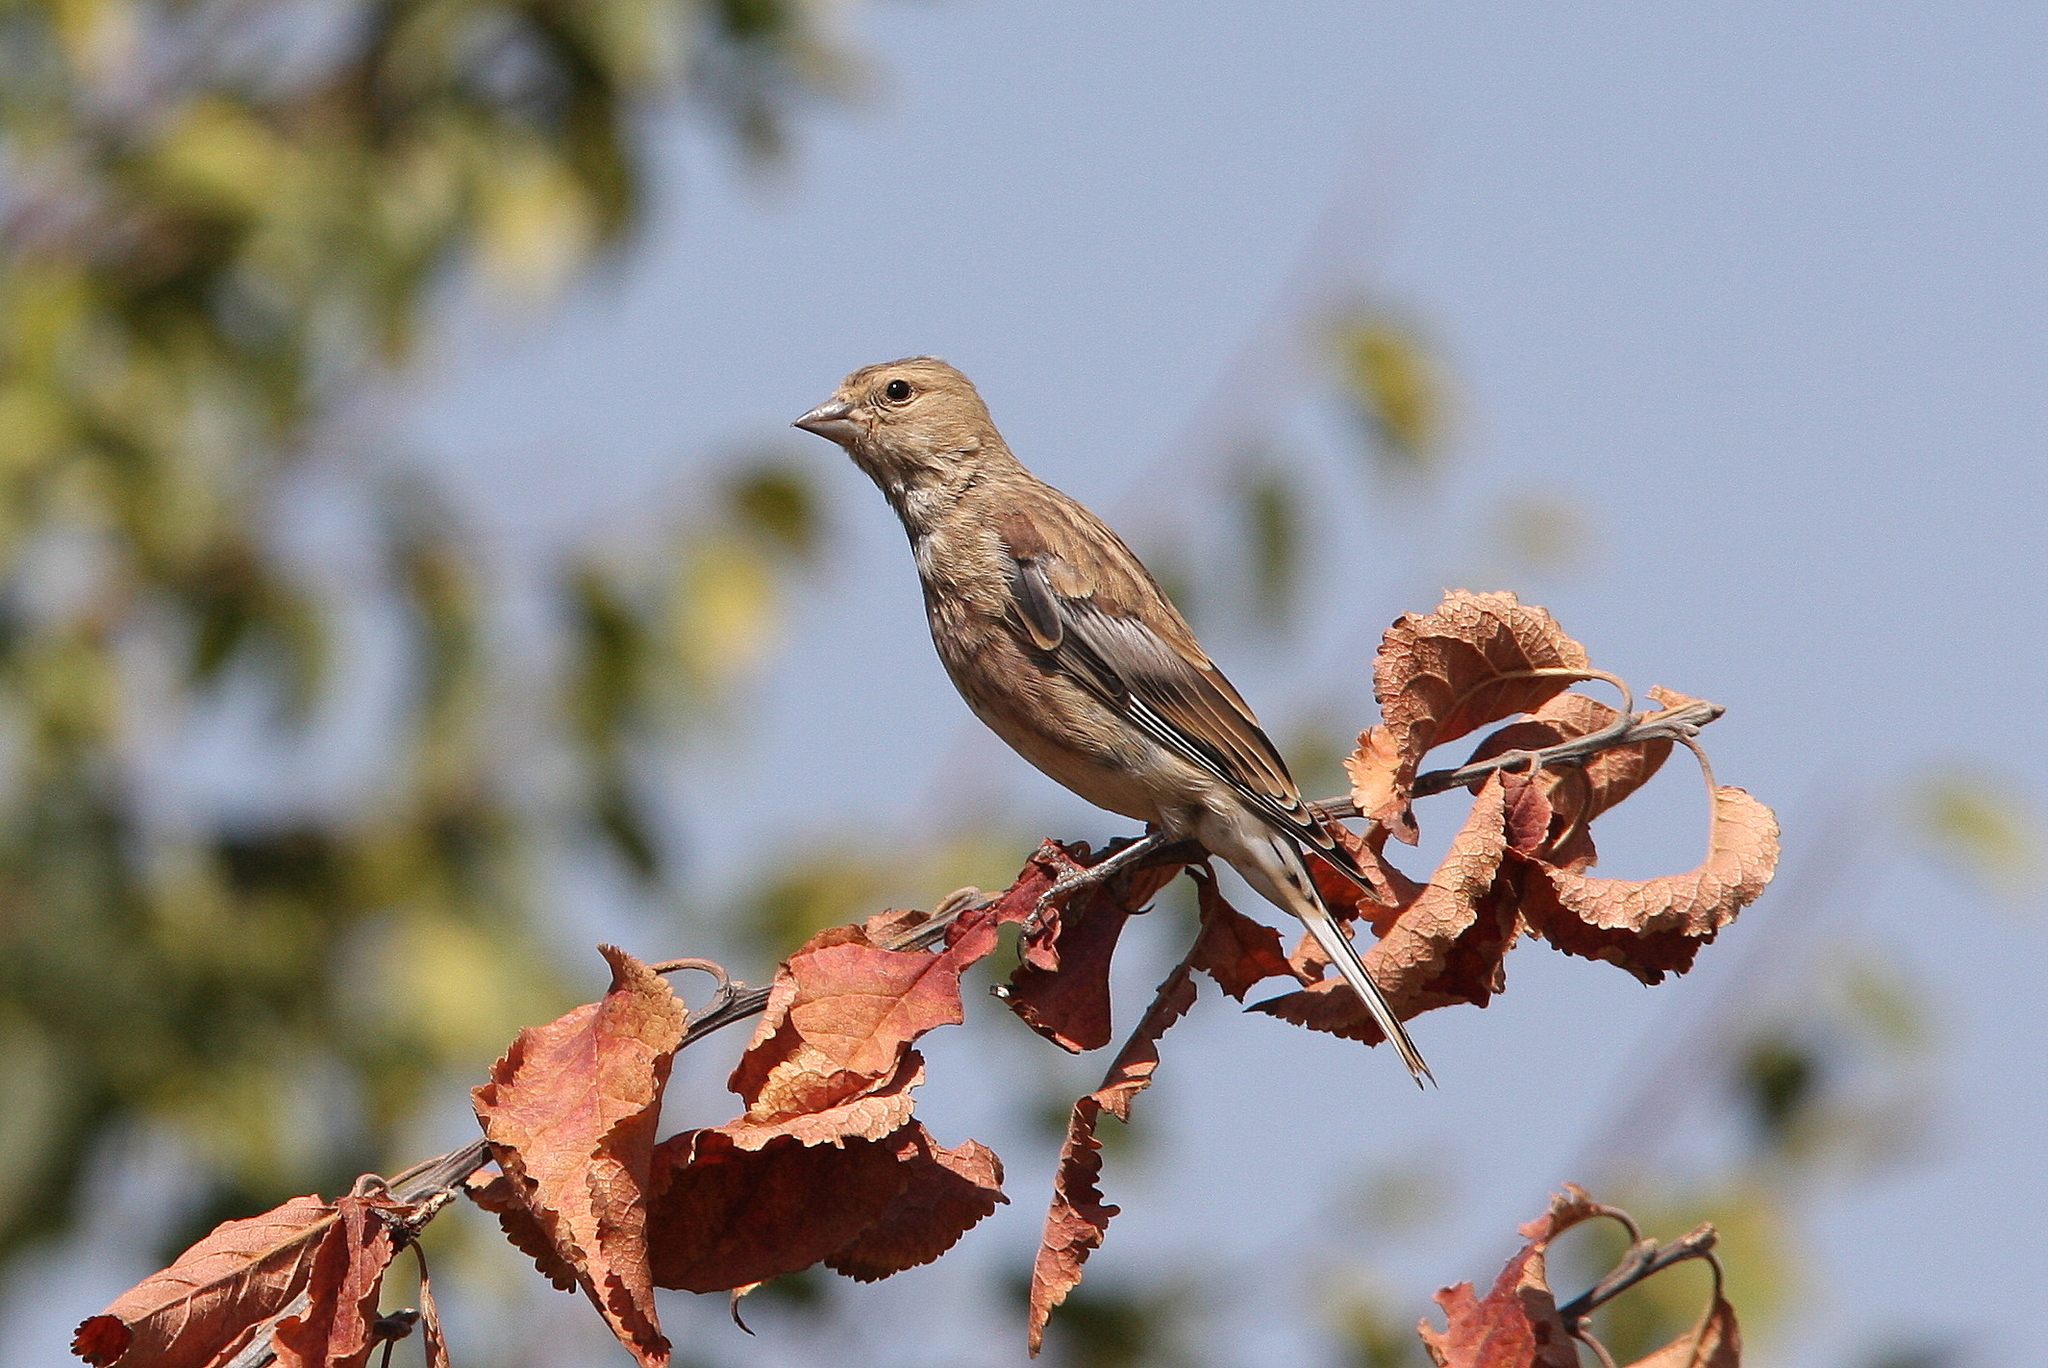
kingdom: Animalia
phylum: Chordata
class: Aves
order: Passeriformes
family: Fringillidae
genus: Linaria
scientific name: Linaria cannabina
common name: Common linnet
